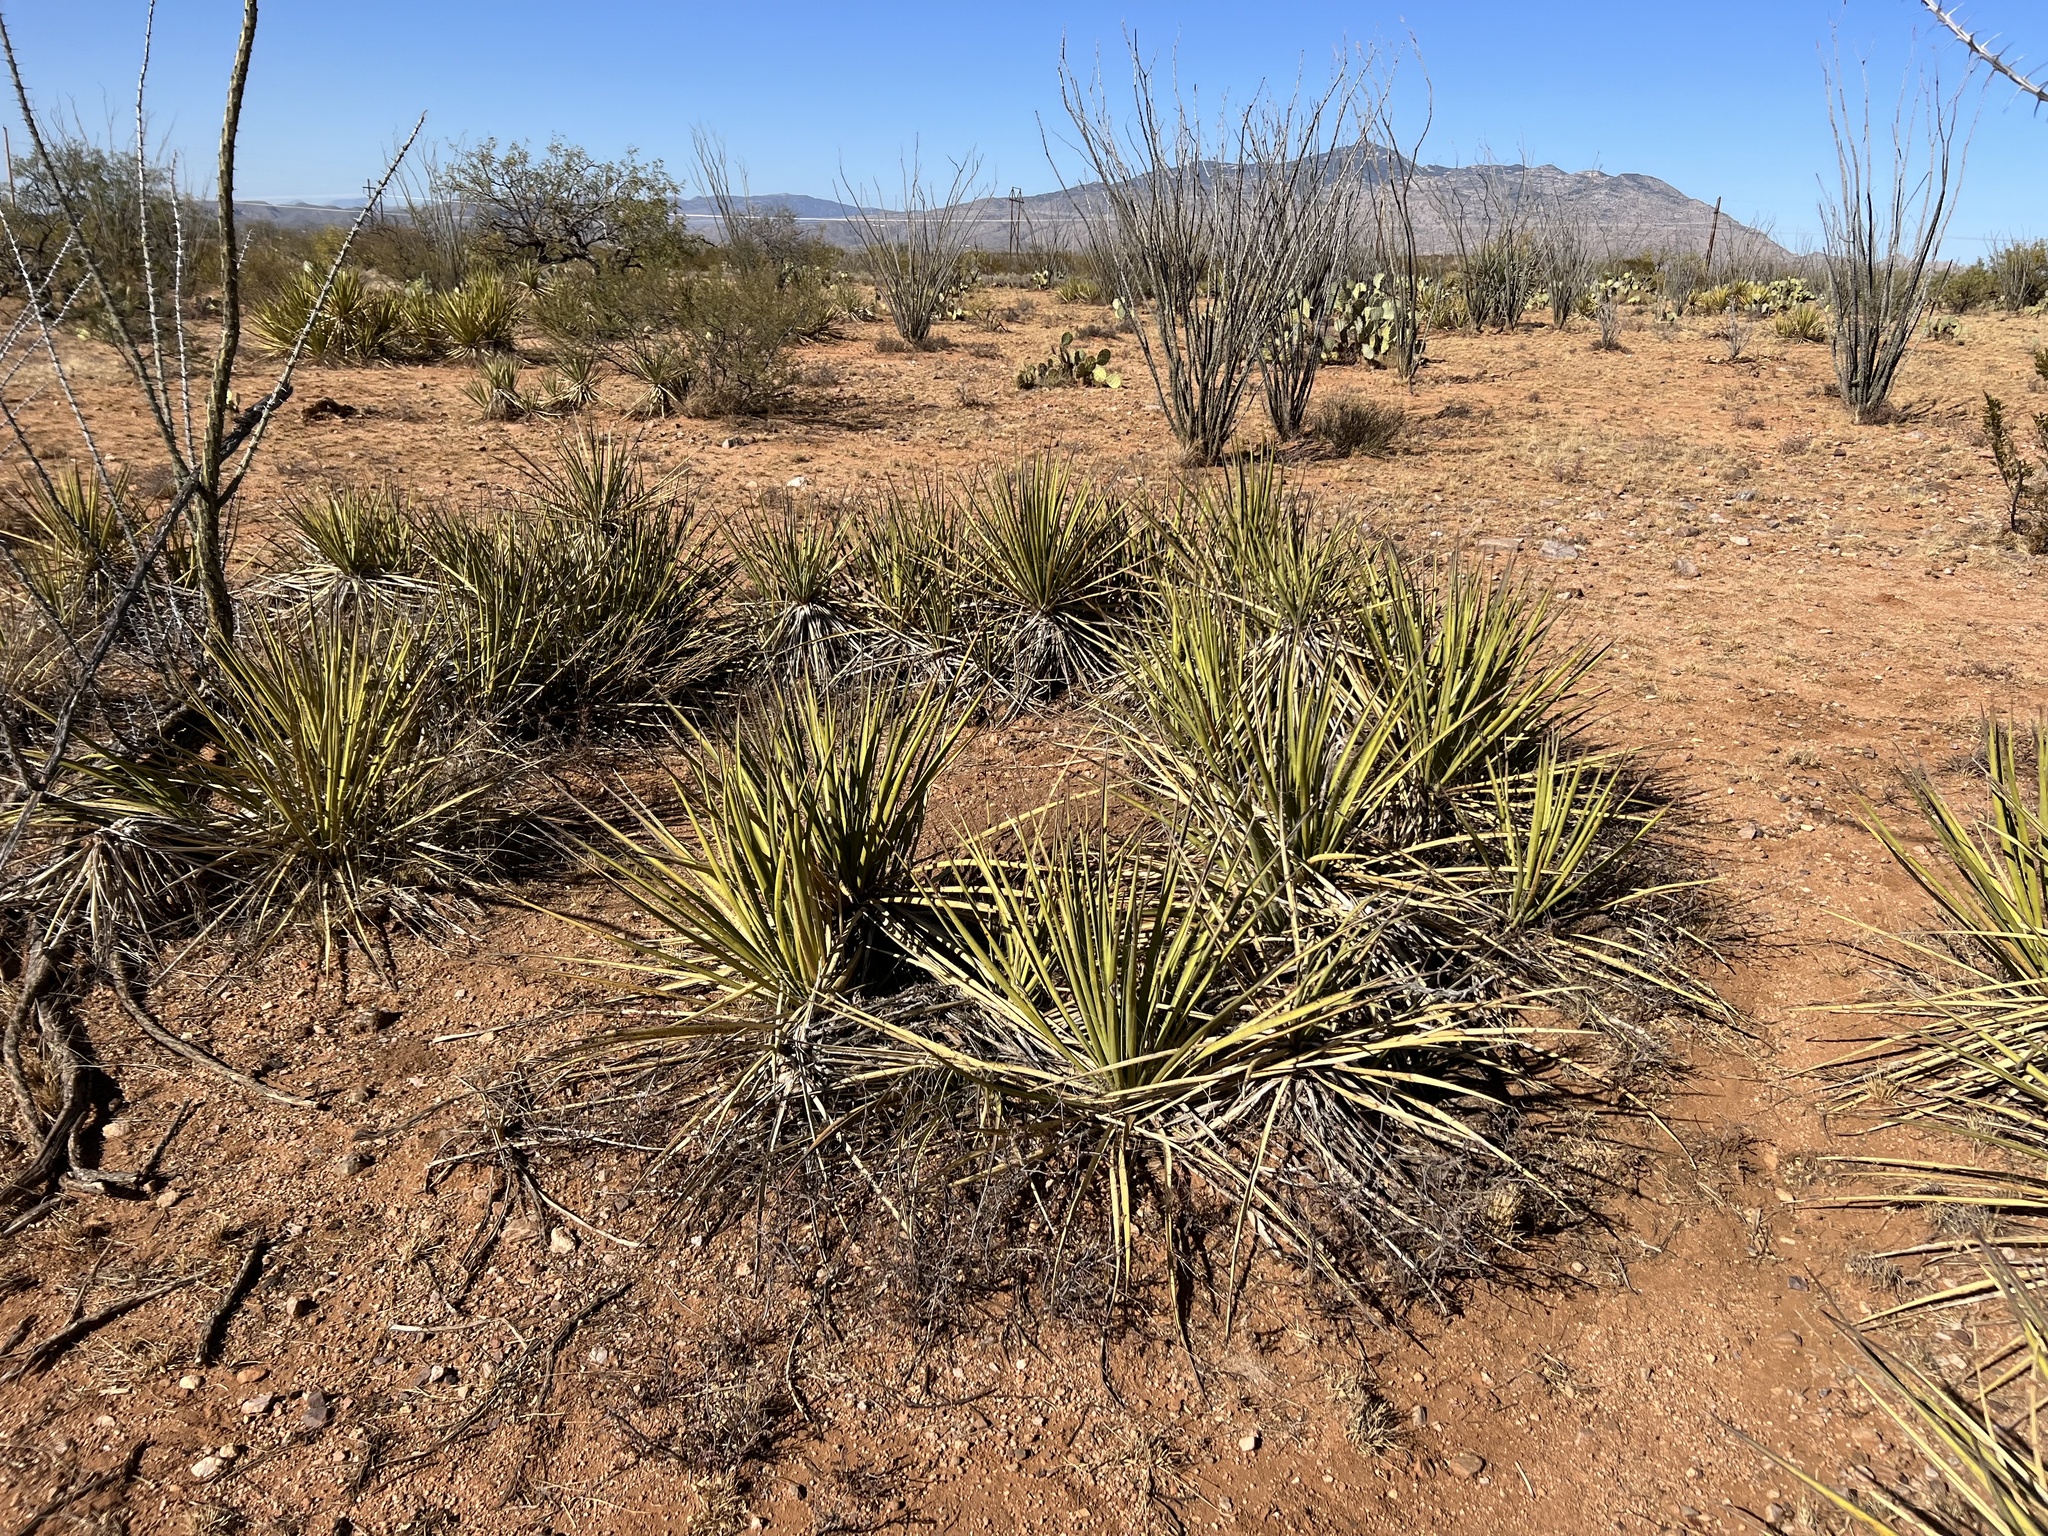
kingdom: Plantae
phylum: Tracheophyta
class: Liliopsida
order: Asparagales
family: Asparagaceae
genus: Yucca
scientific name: Yucca baccata
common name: Banana yucca
